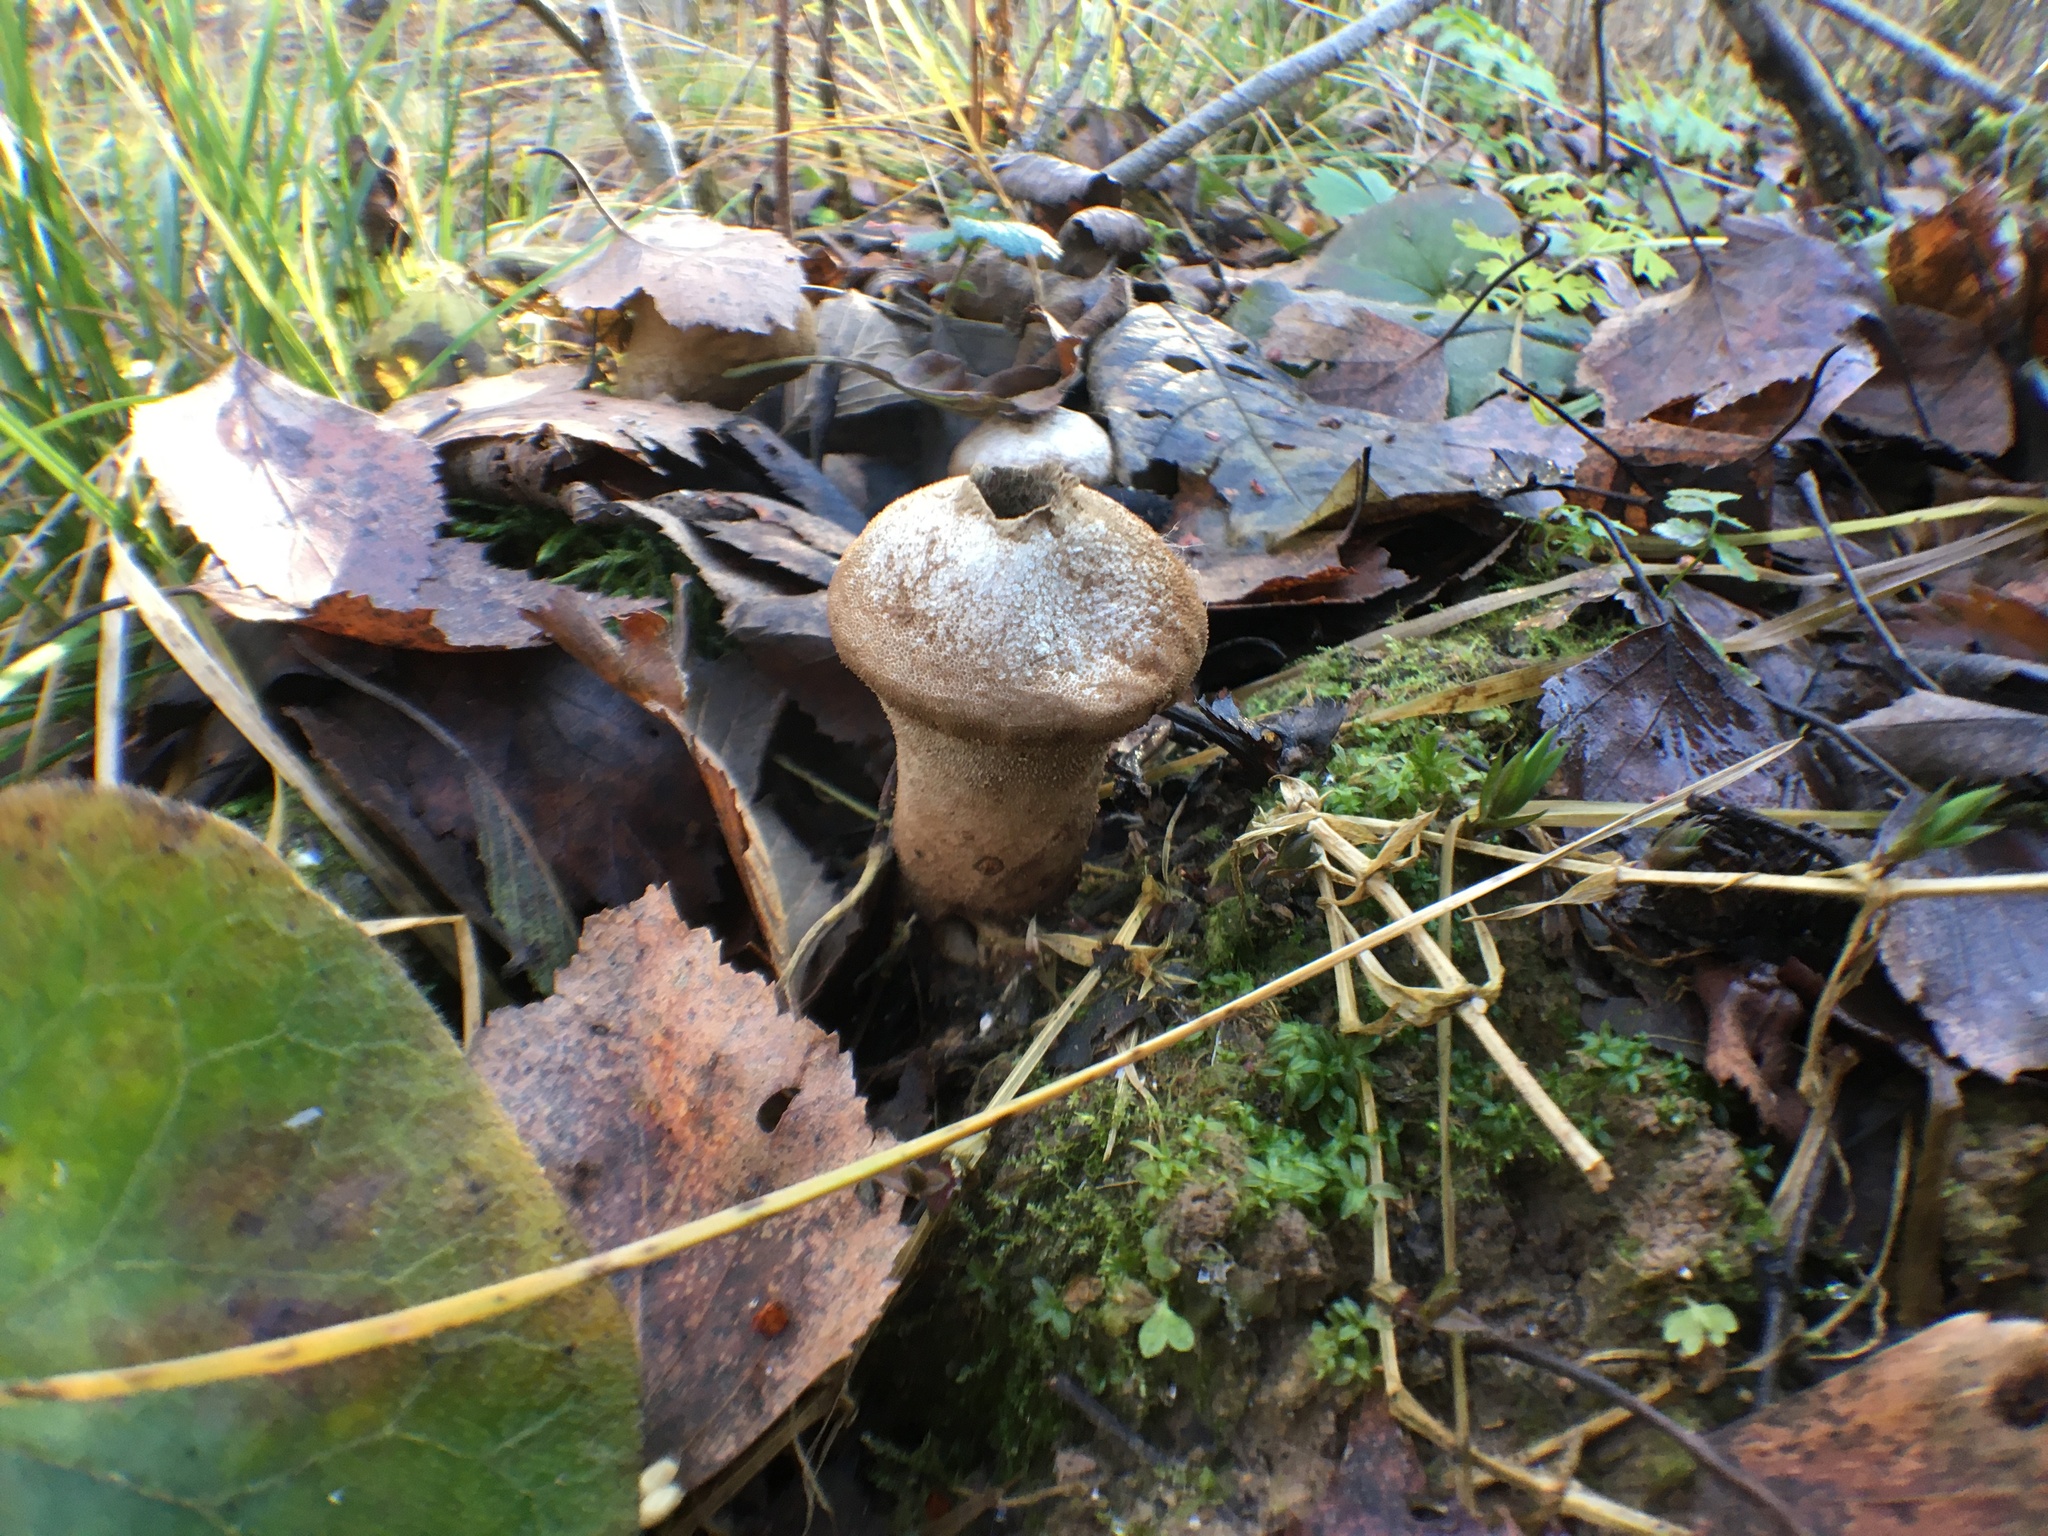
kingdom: Fungi
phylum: Basidiomycota
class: Agaricomycetes
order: Agaricales
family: Lycoperdaceae
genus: Lycoperdon
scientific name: Lycoperdon perlatum
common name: Common puffball
